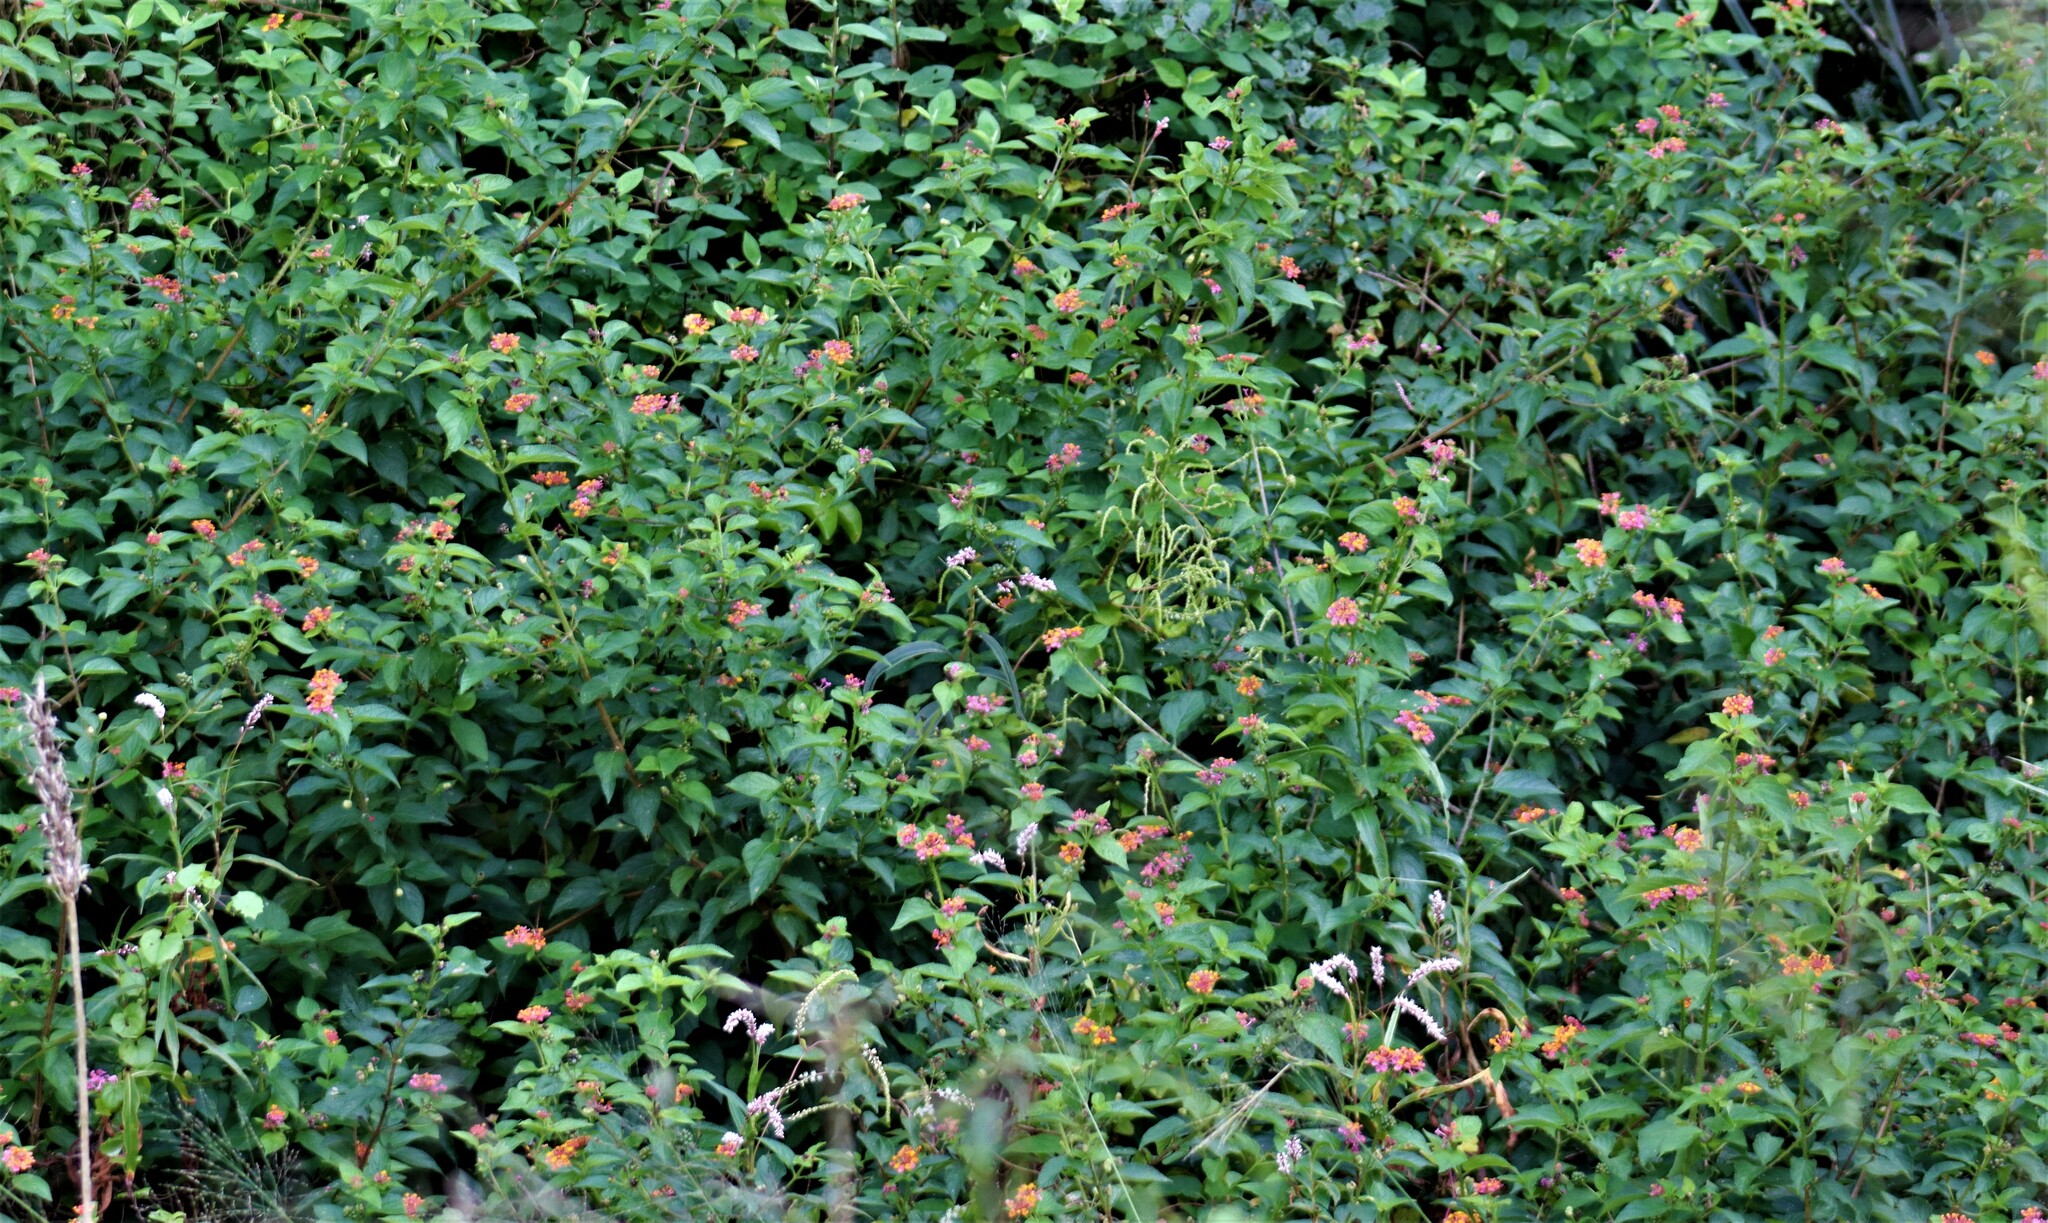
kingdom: Plantae
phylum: Tracheophyta
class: Magnoliopsida
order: Lamiales
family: Verbenaceae
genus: Lantana
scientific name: Lantana camara
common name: Lantana
